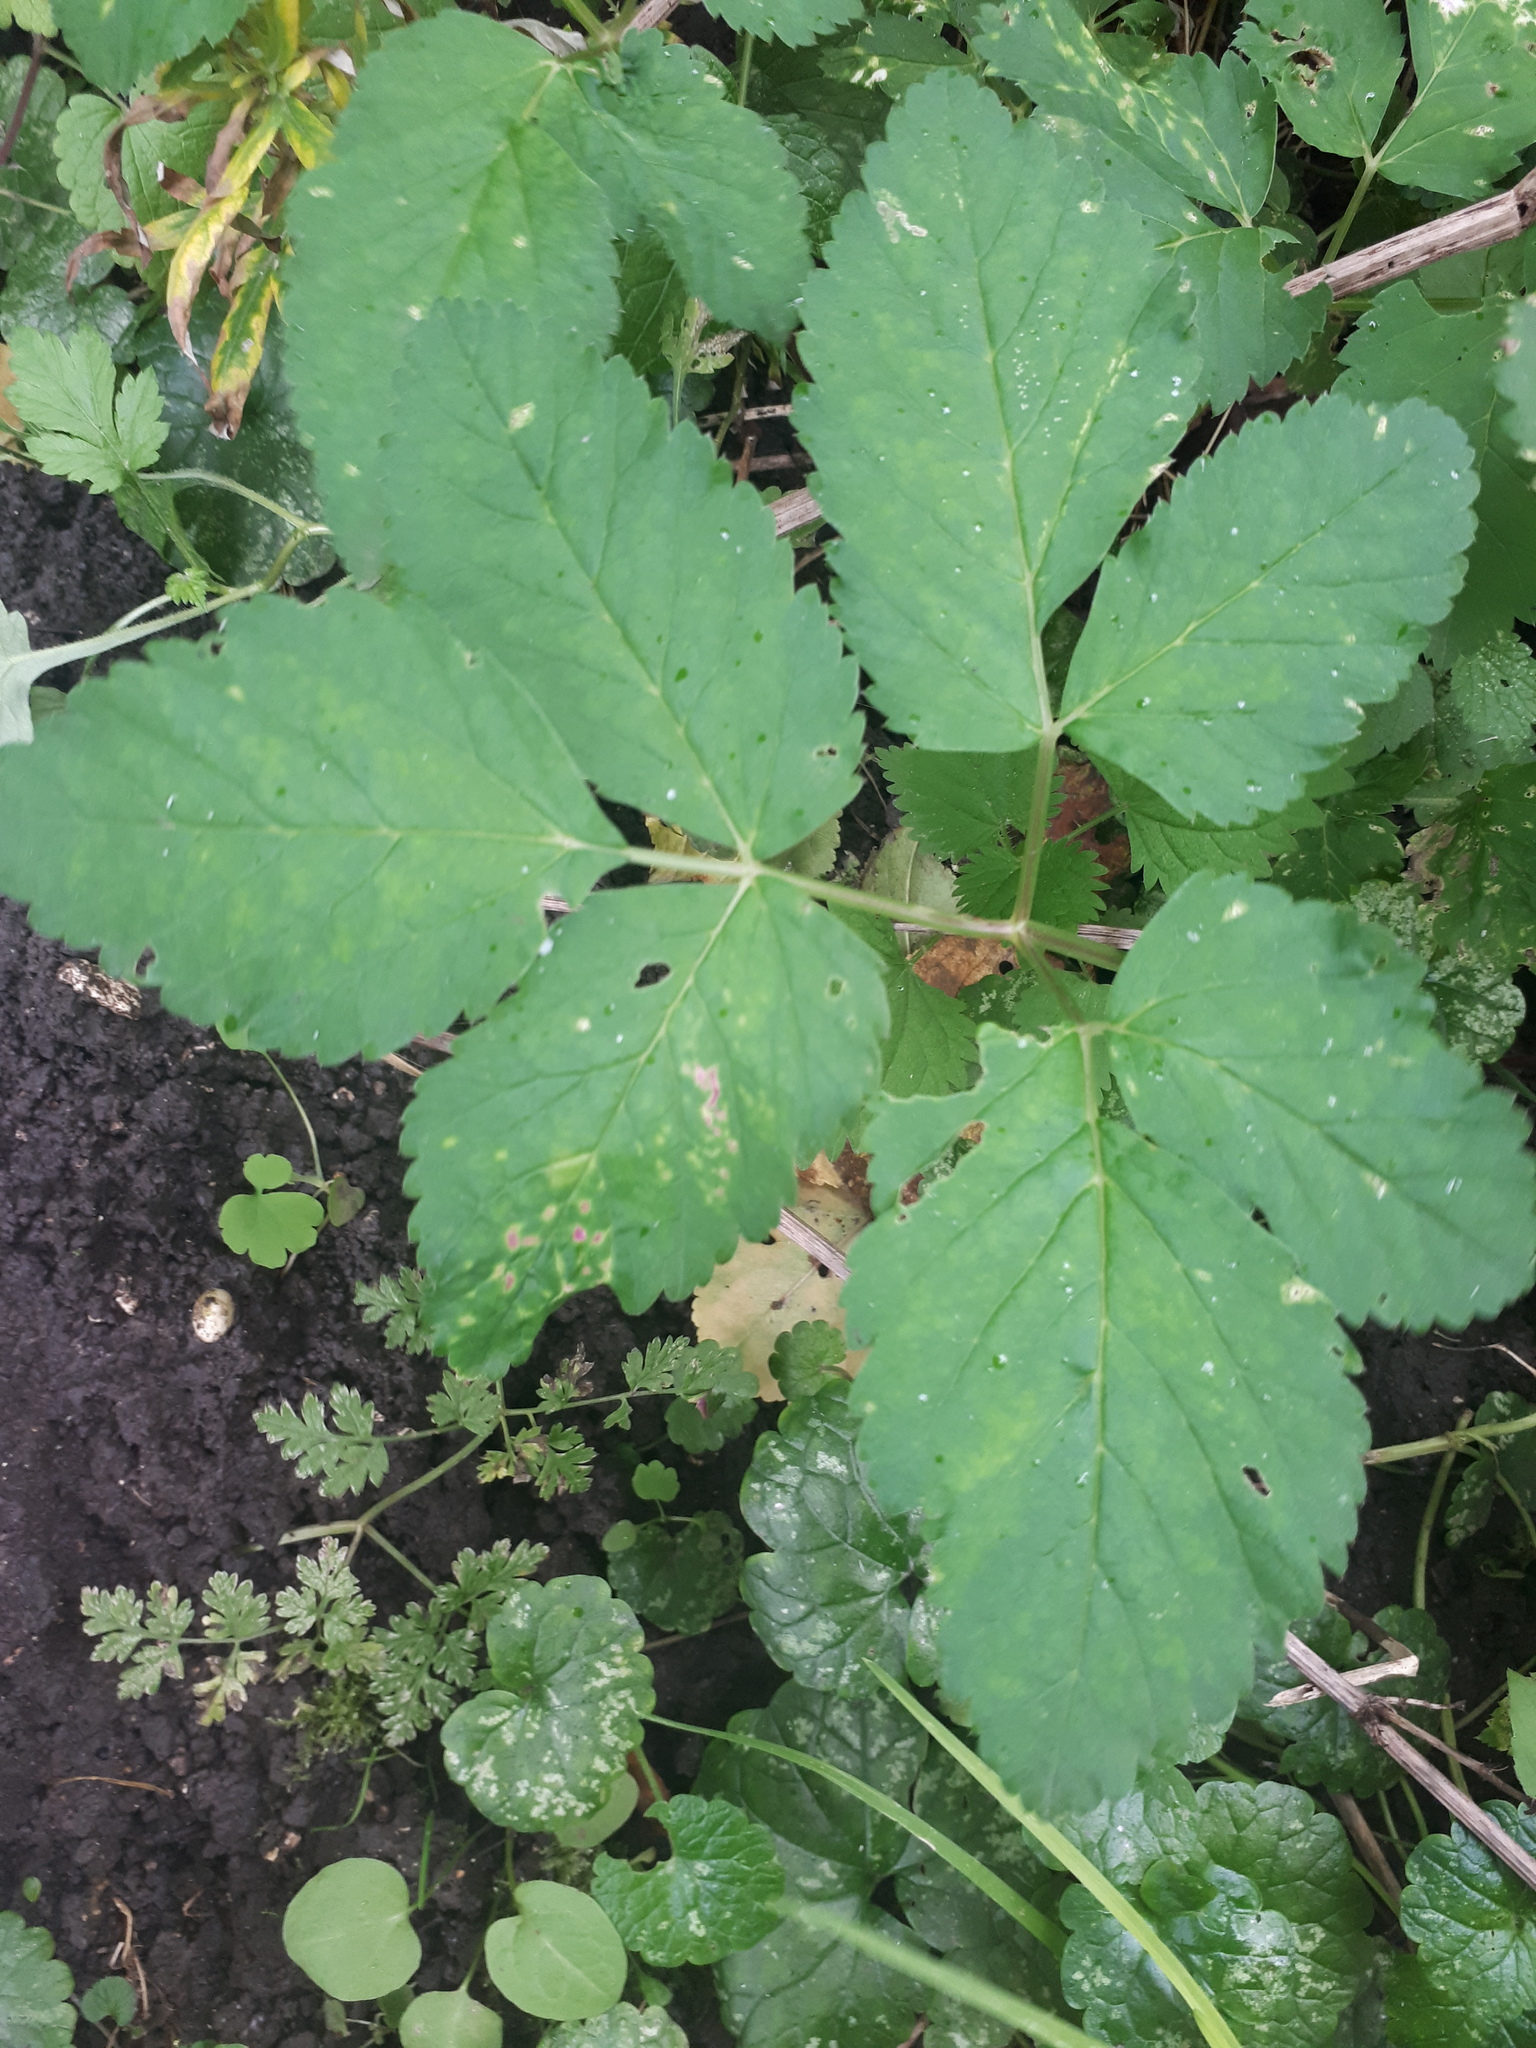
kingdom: Plantae
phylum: Tracheophyta
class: Magnoliopsida
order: Apiales
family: Apiaceae
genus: Aegopodium
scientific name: Aegopodium podagraria
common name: Ground-elder
